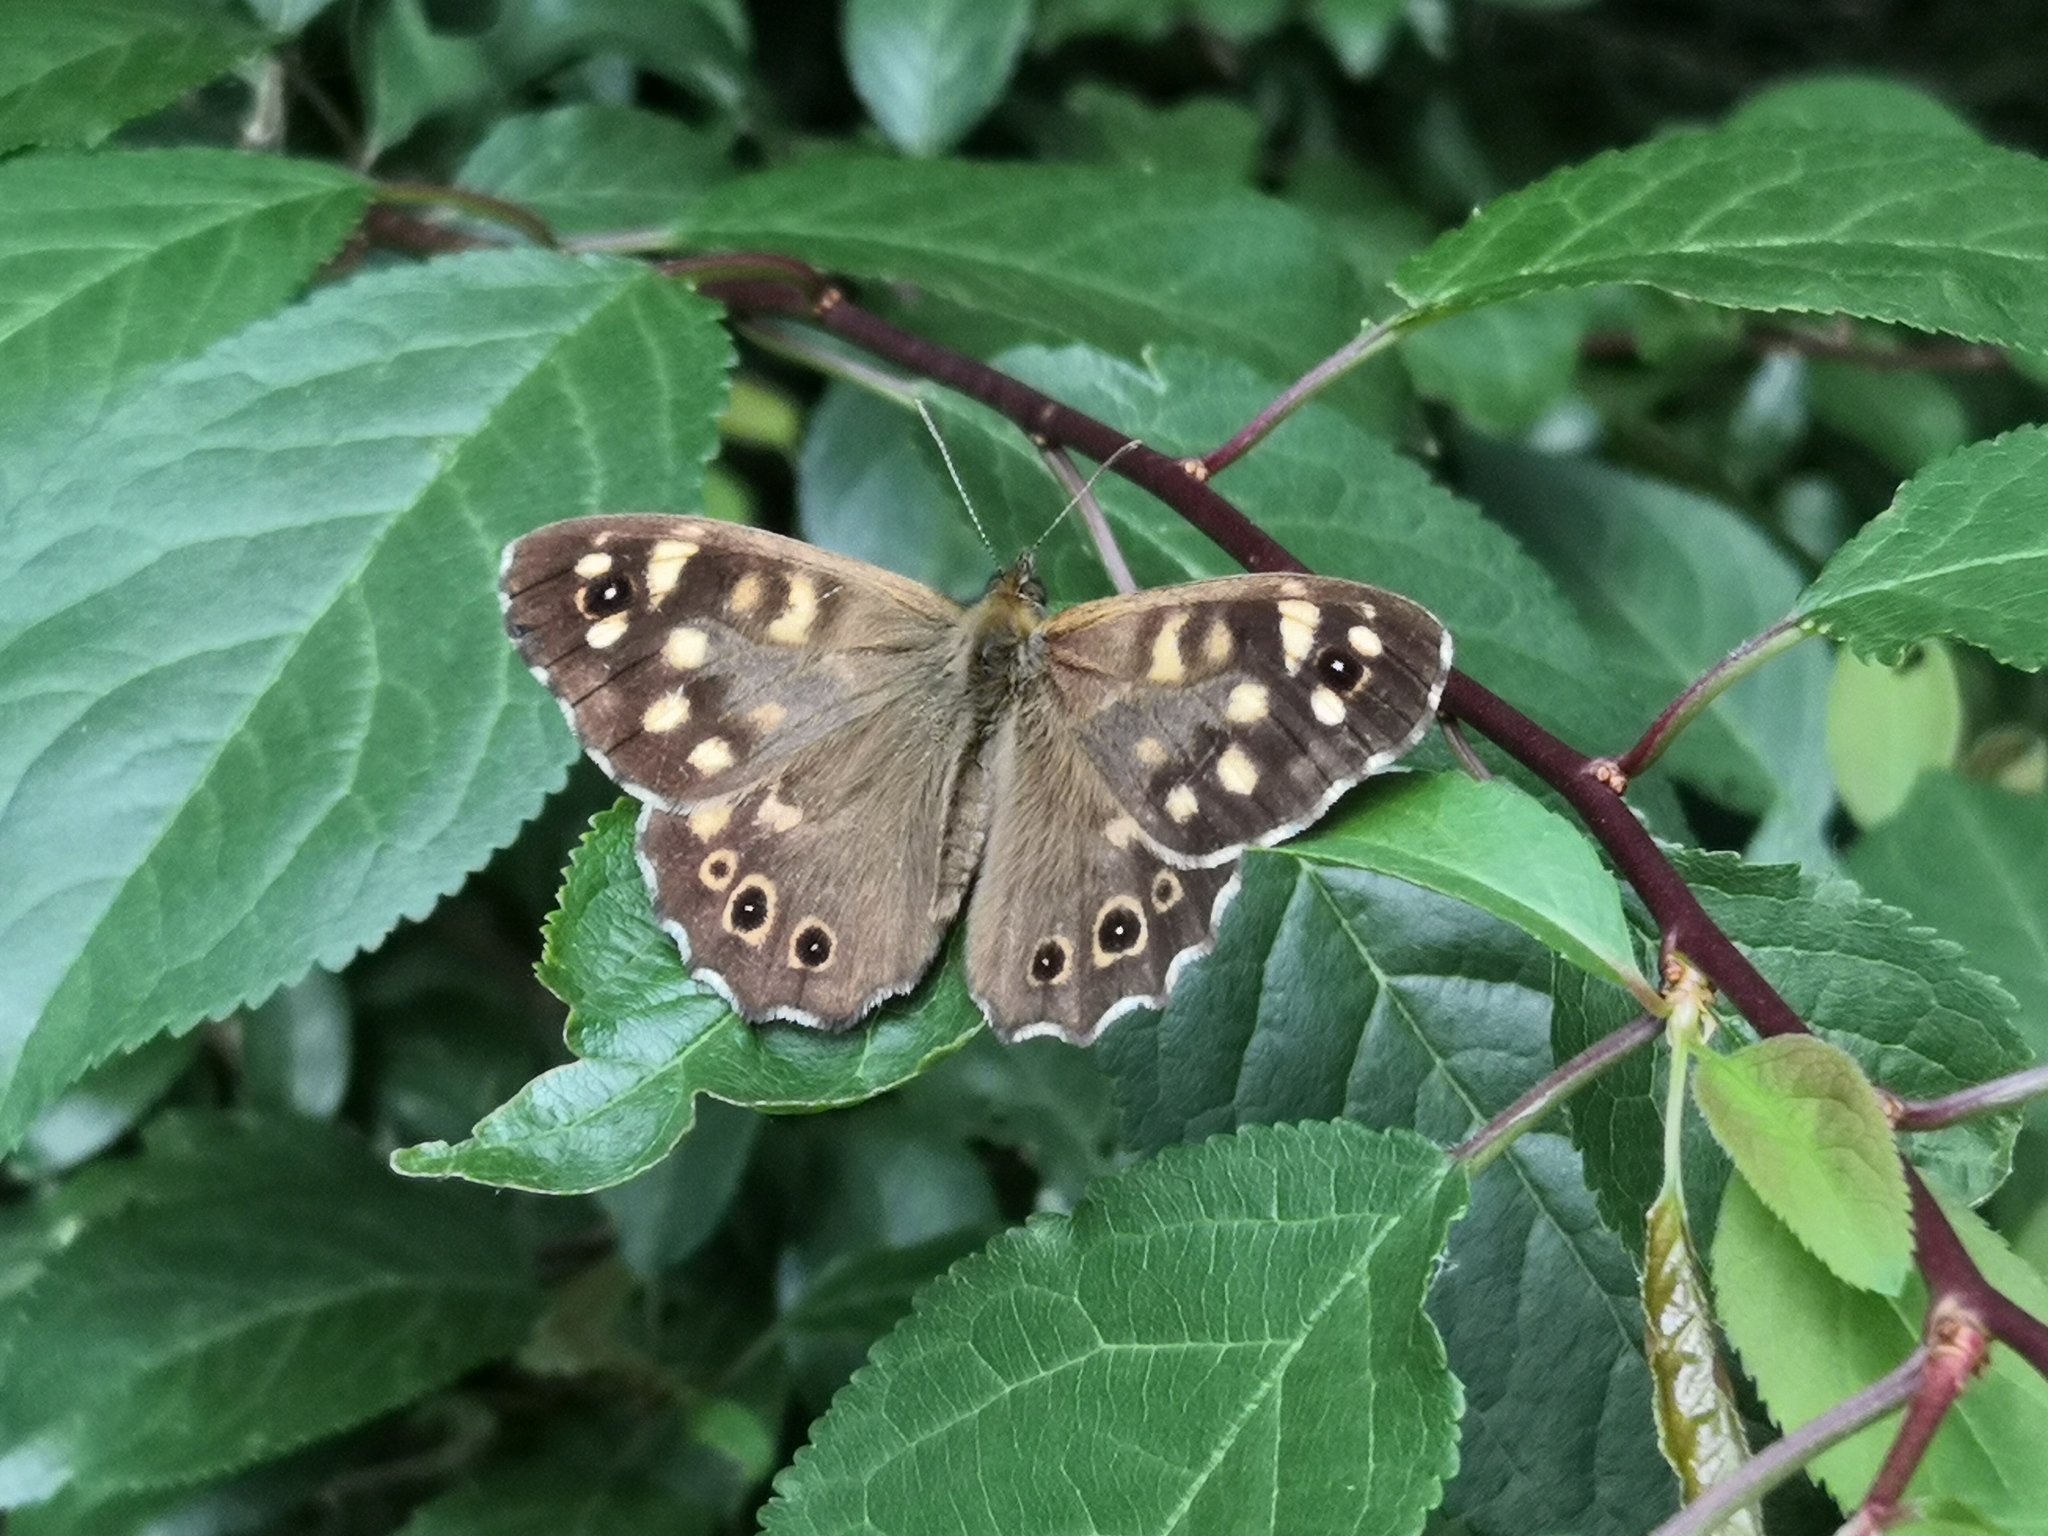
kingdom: Animalia
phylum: Arthropoda
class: Insecta
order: Lepidoptera
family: Nymphalidae
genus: Pararge
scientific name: Pararge aegeria
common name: Speckled wood
